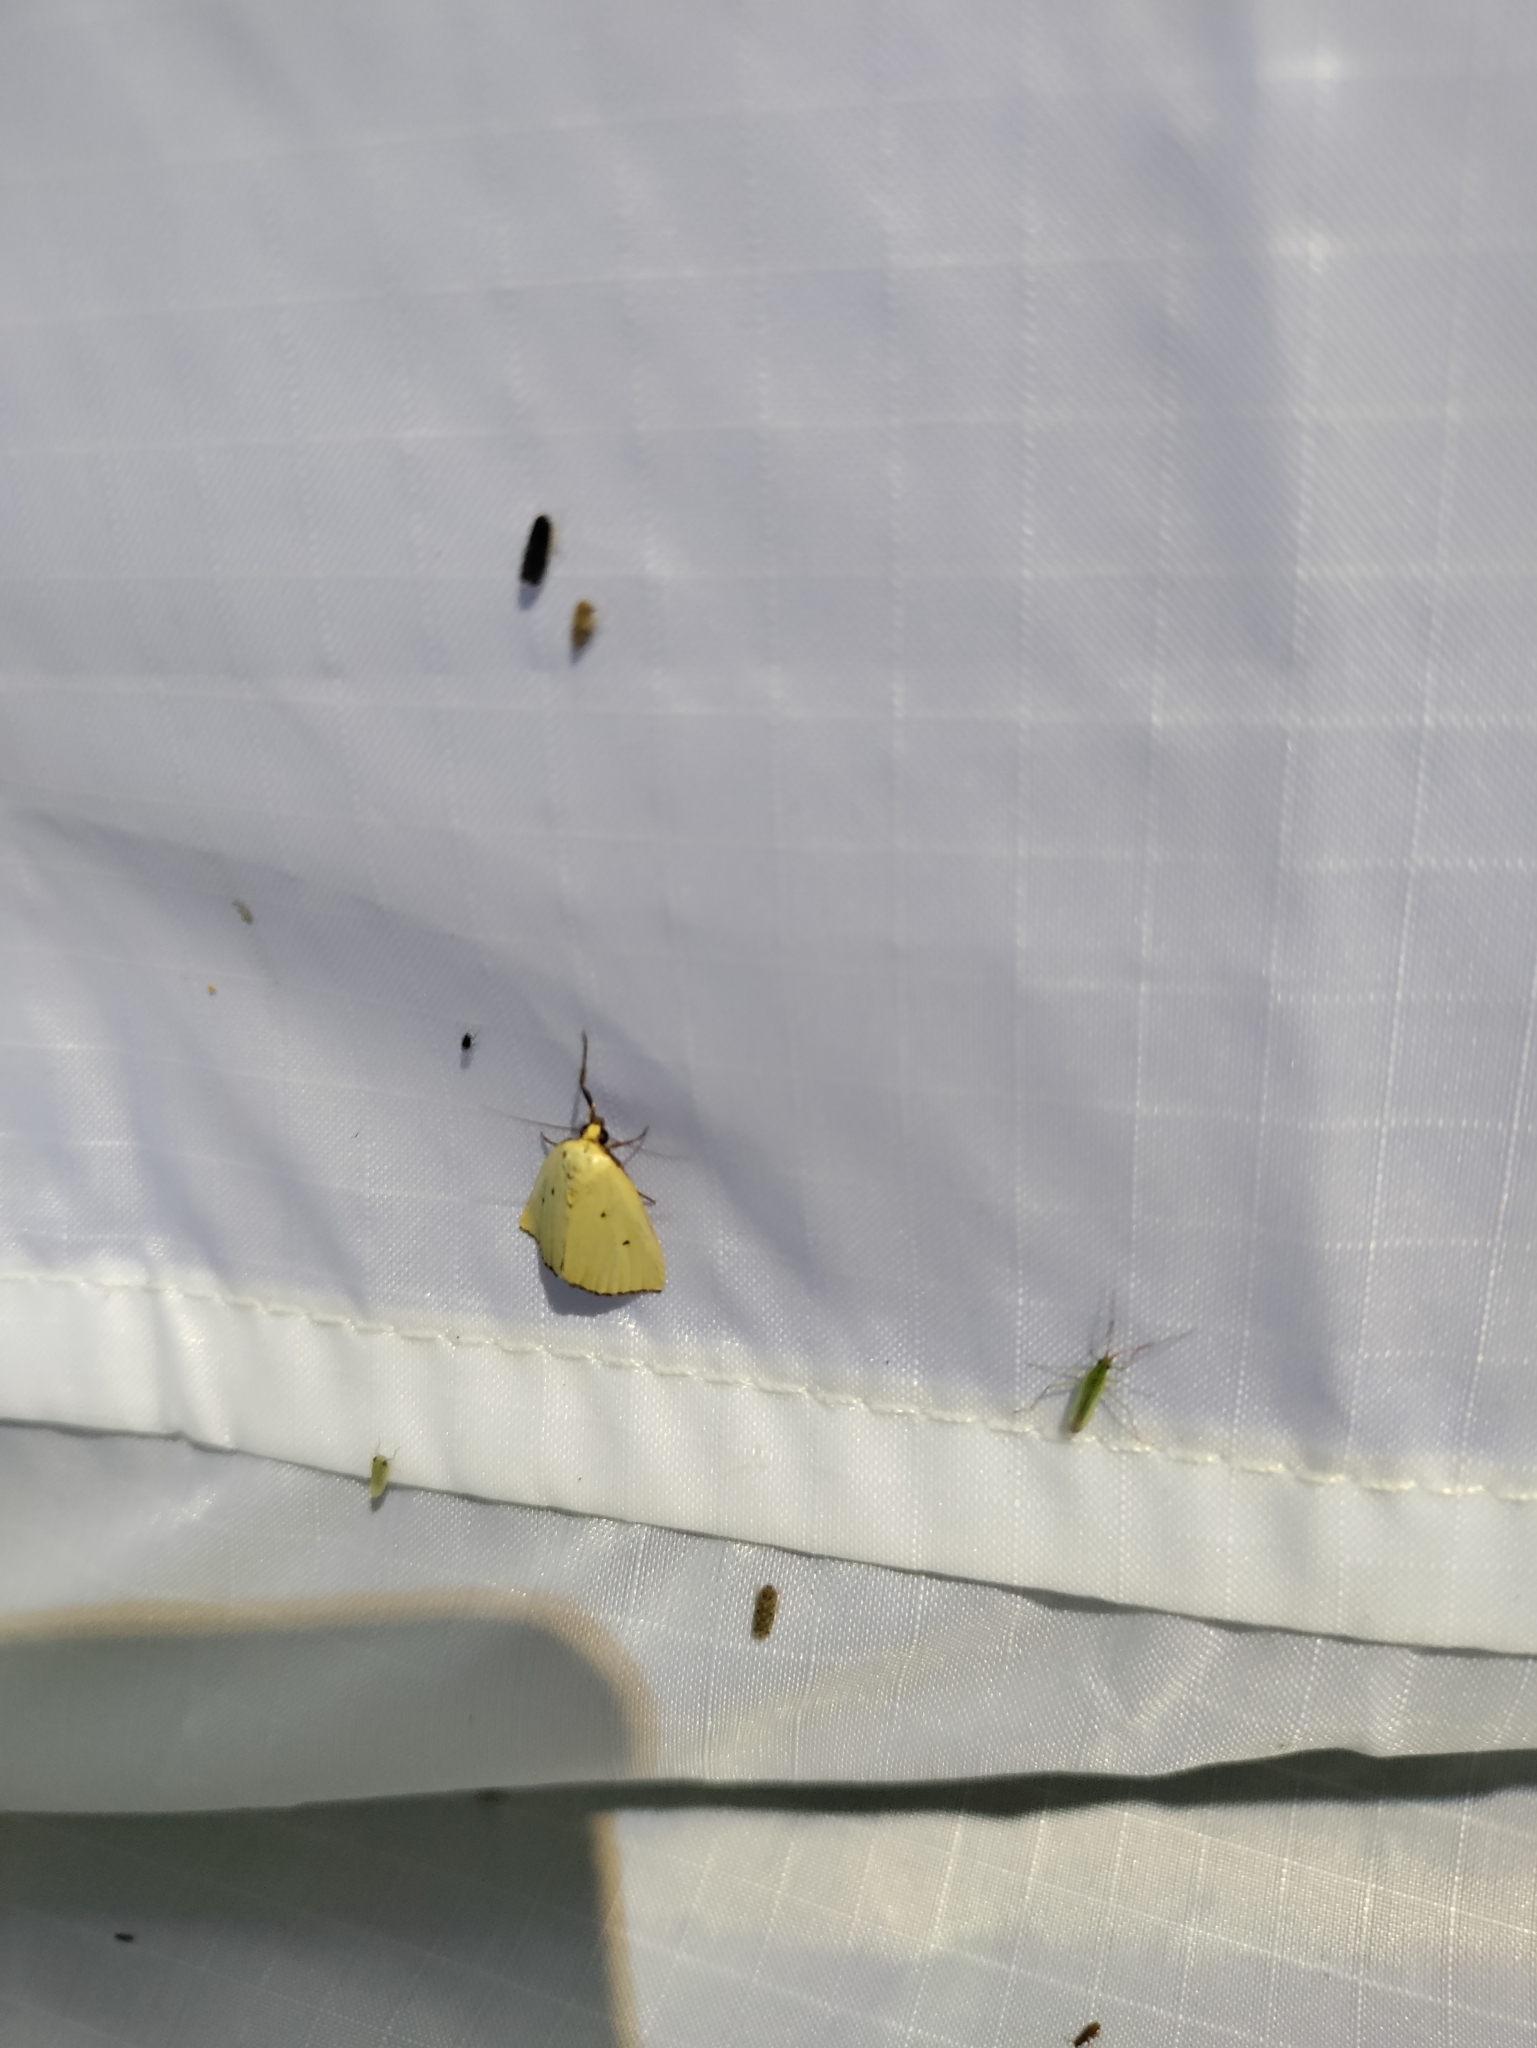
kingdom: Animalia
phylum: Arthropoda
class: Insecta
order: Lepidoptera
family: Noctuidae
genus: Marimatha
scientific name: Marimatha nigrofimbria
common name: Black-bordered lemon moth
